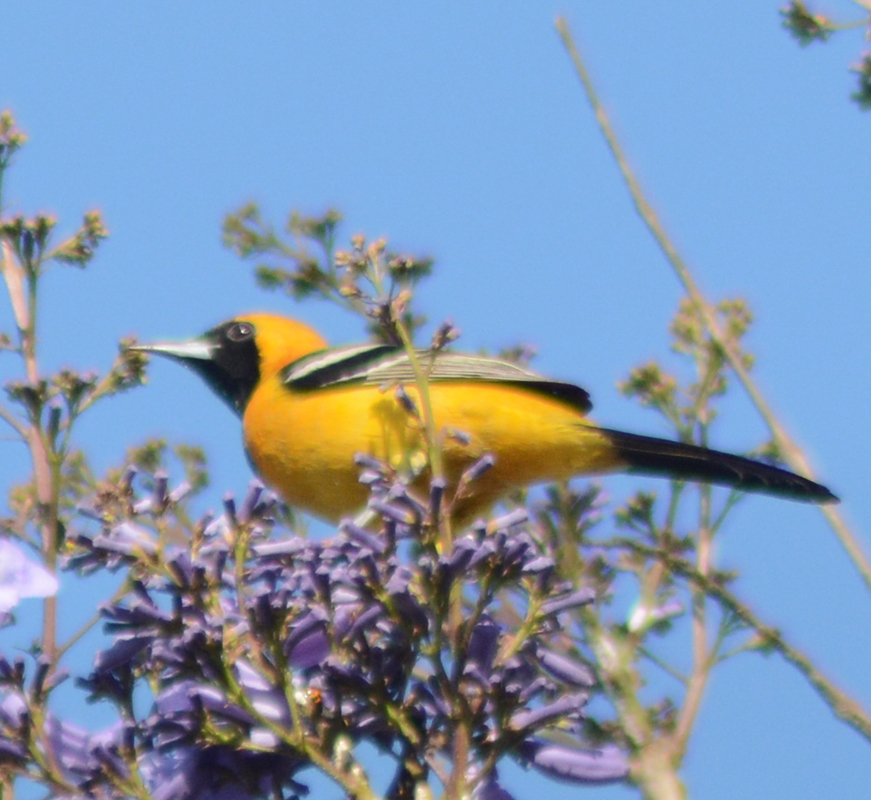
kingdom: Animalia
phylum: Chordata
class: Aves
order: Passeriformes
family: Icteridae
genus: Icterus
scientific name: Icterus cucullatus
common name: Hooded oriole
